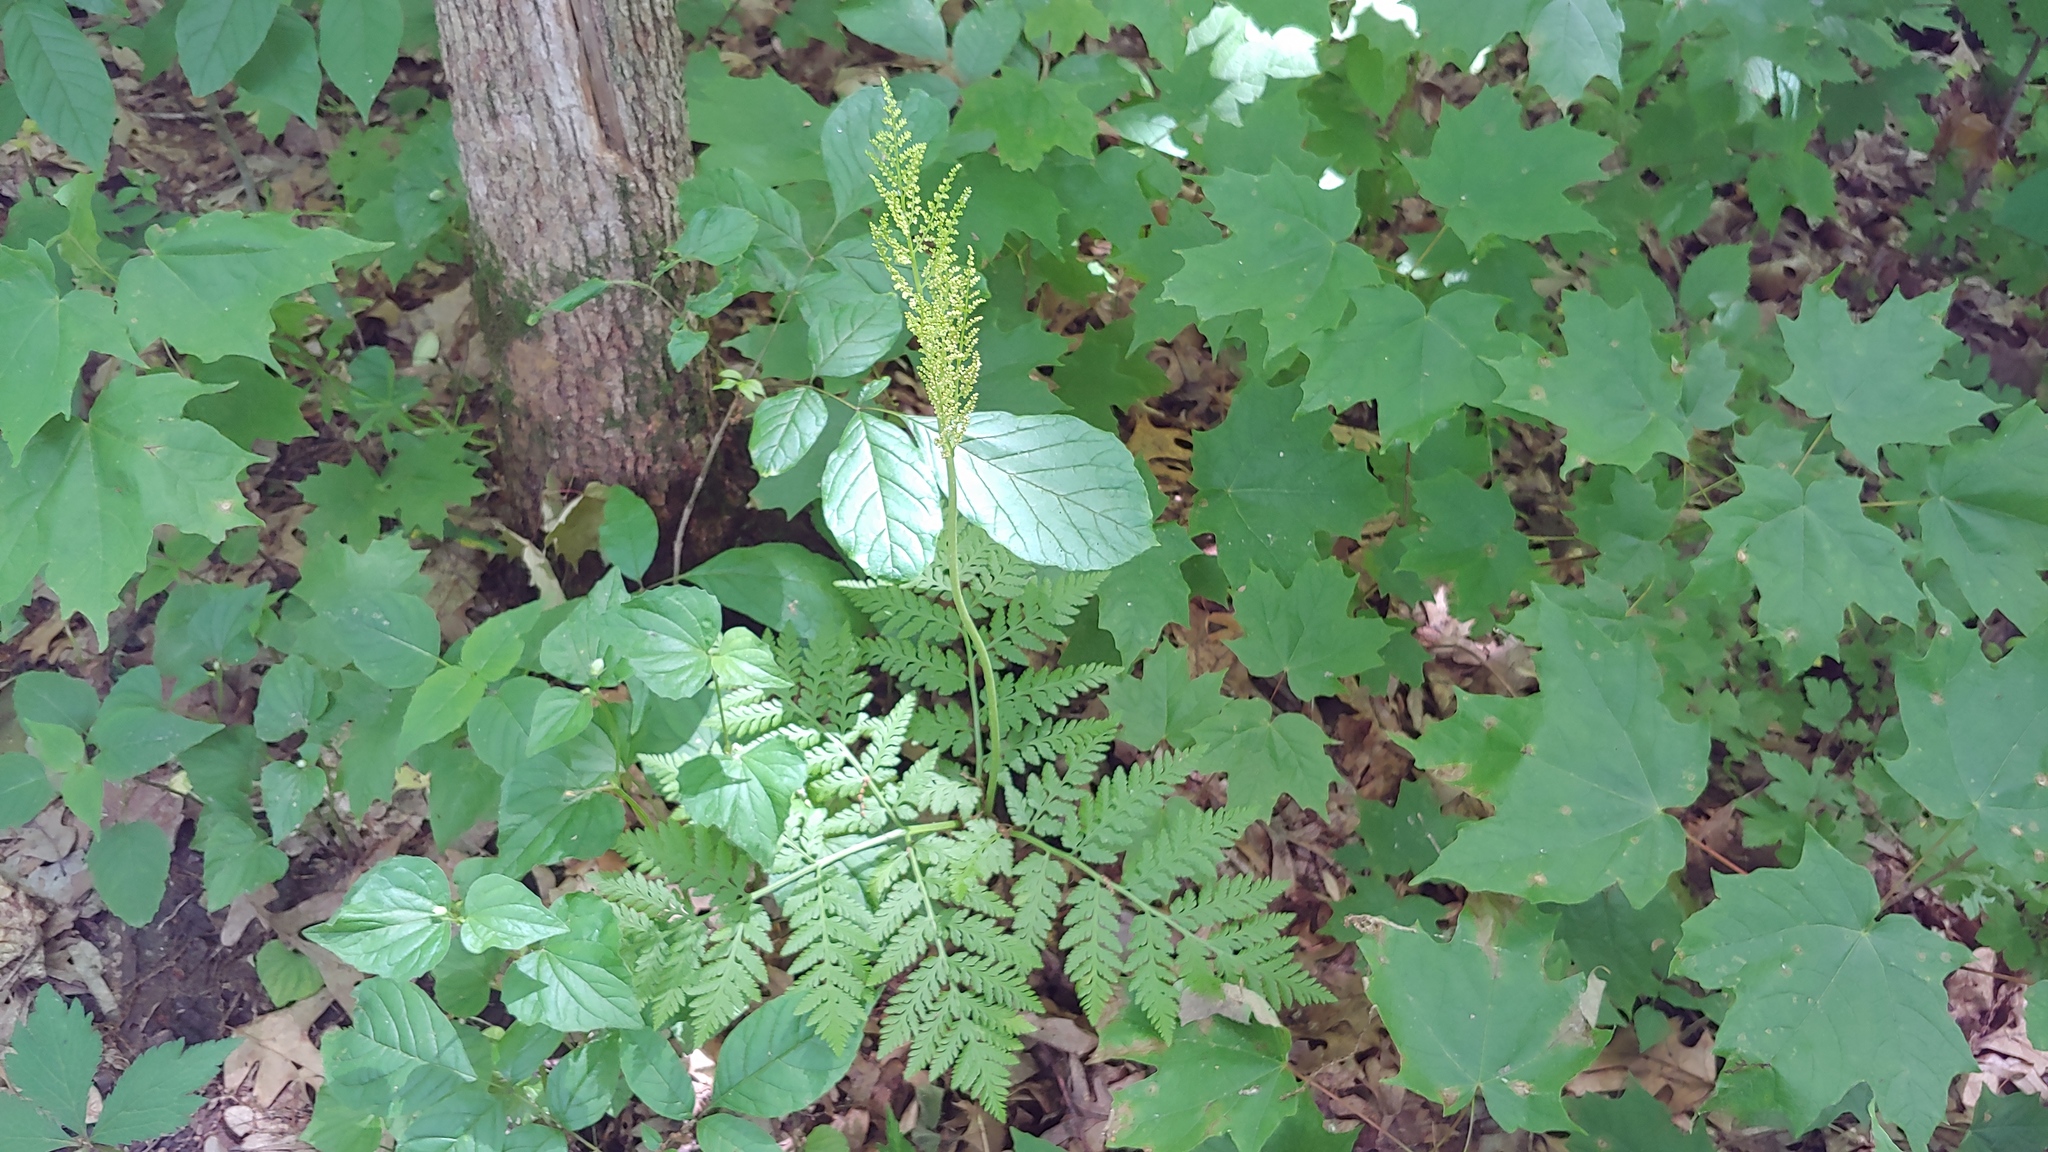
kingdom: Plantae
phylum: Tracheophyta
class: Polypodiopsida
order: Ophioglossales
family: Ophioglossaceae
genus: Botrypus
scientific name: Botrypus virginianus
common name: Common grapefern
